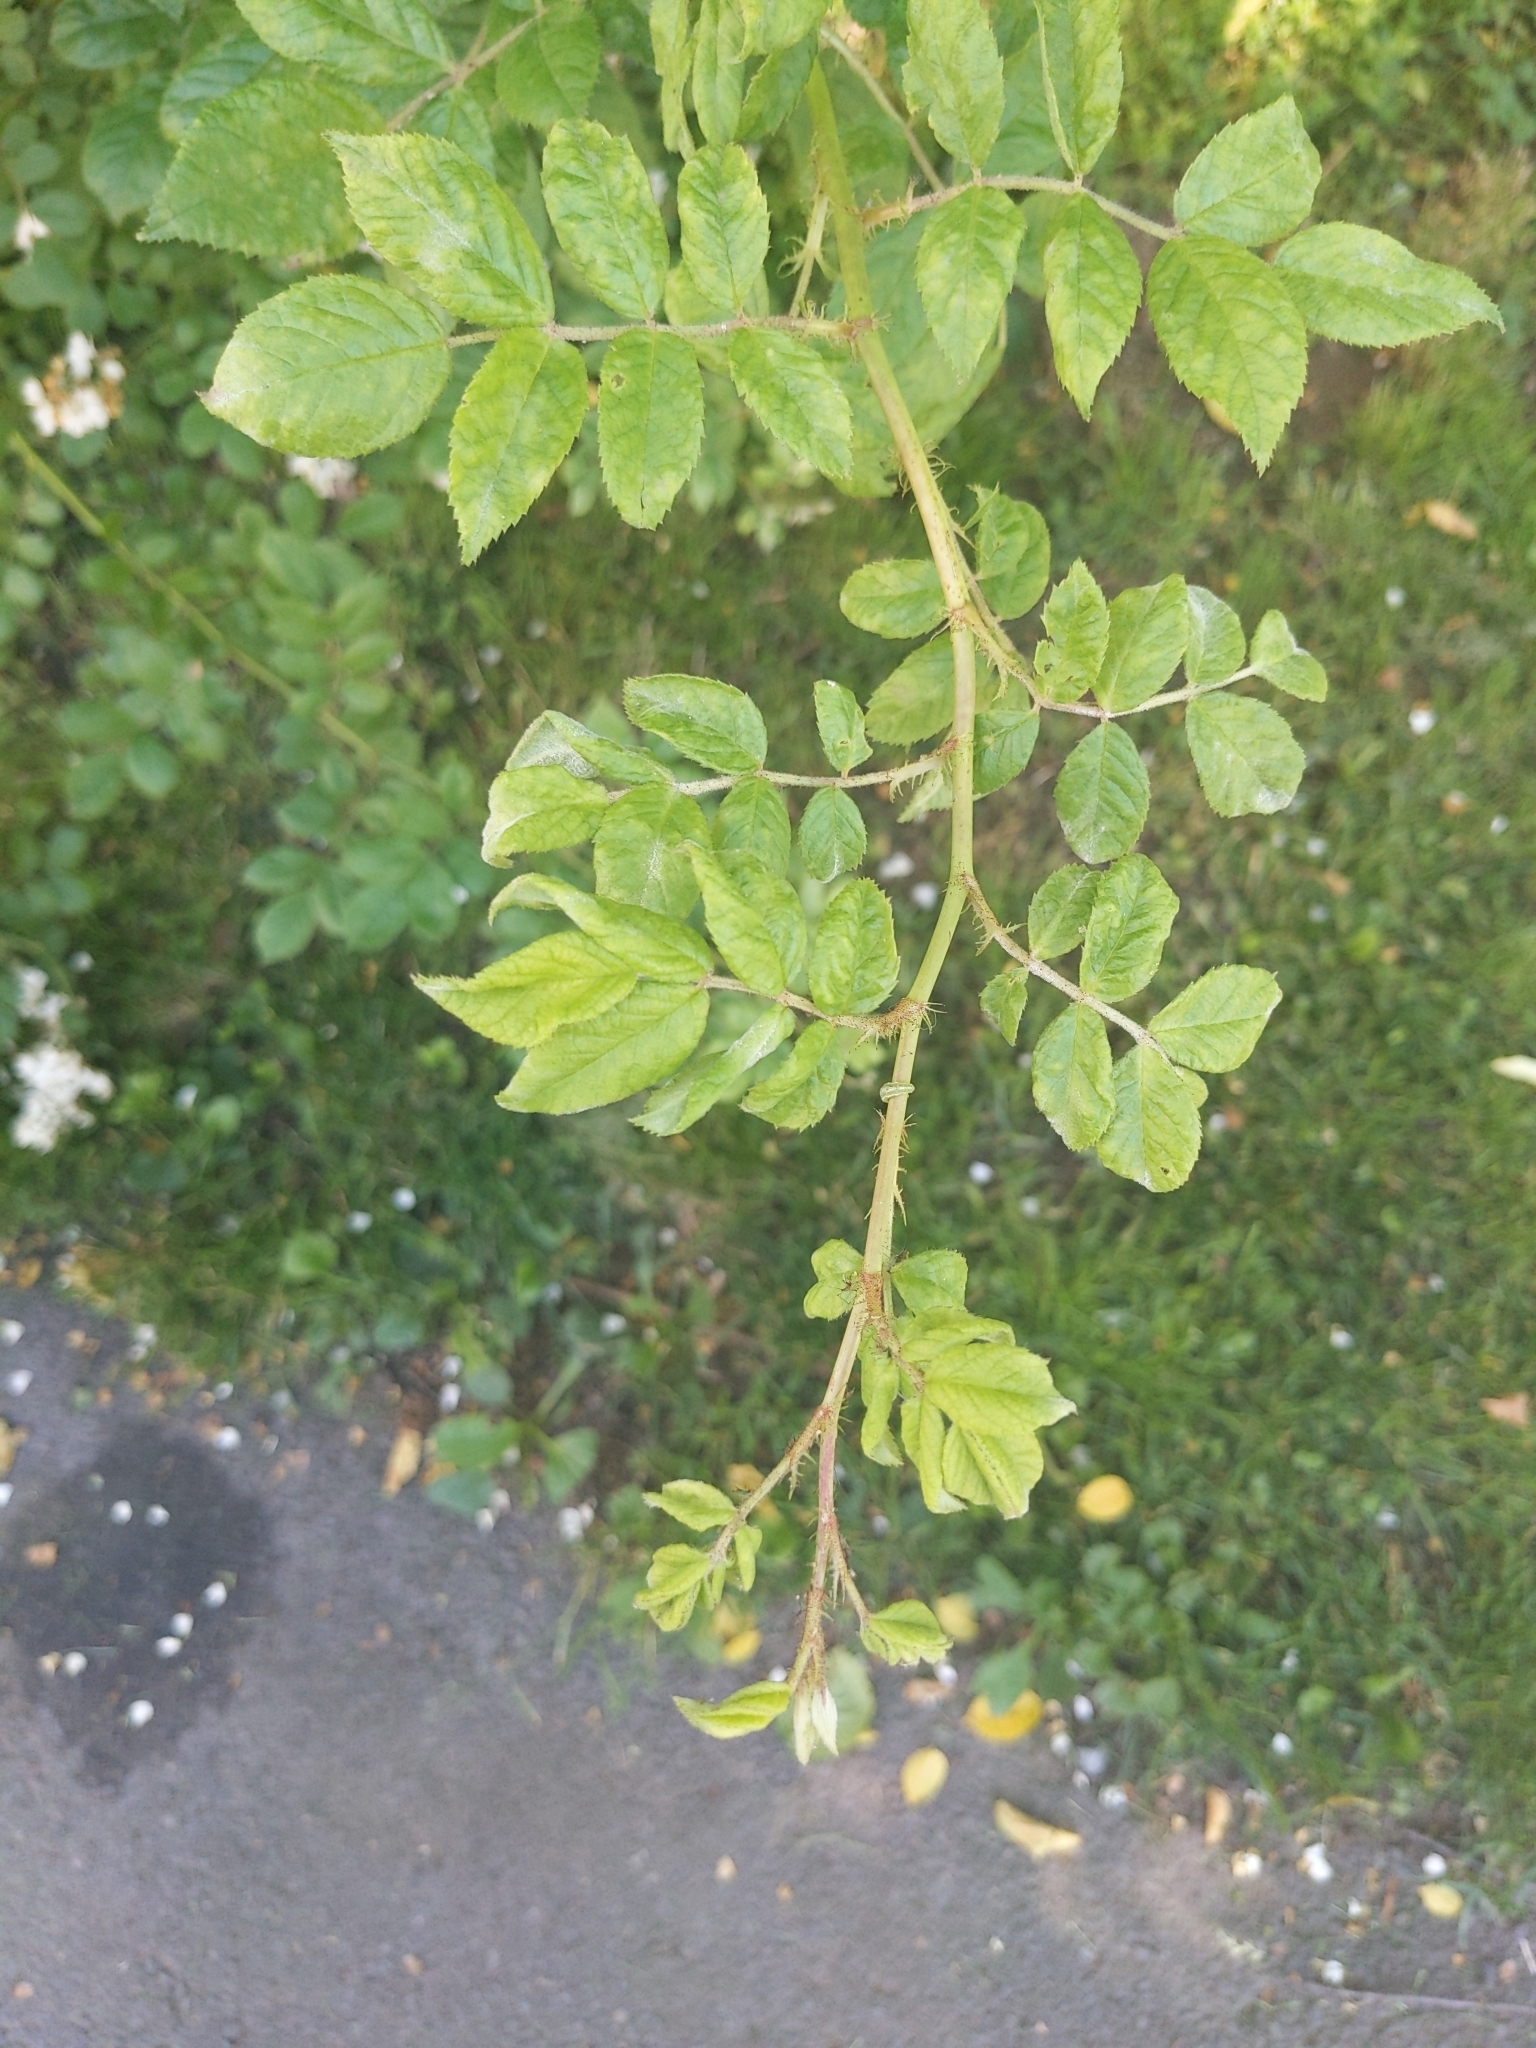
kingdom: Plantae
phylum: Tracheophyta
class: Magnoliopsida
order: Rosales
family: Rosaceae
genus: Rosa
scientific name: Rosa multiflora
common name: Multiflora rose
